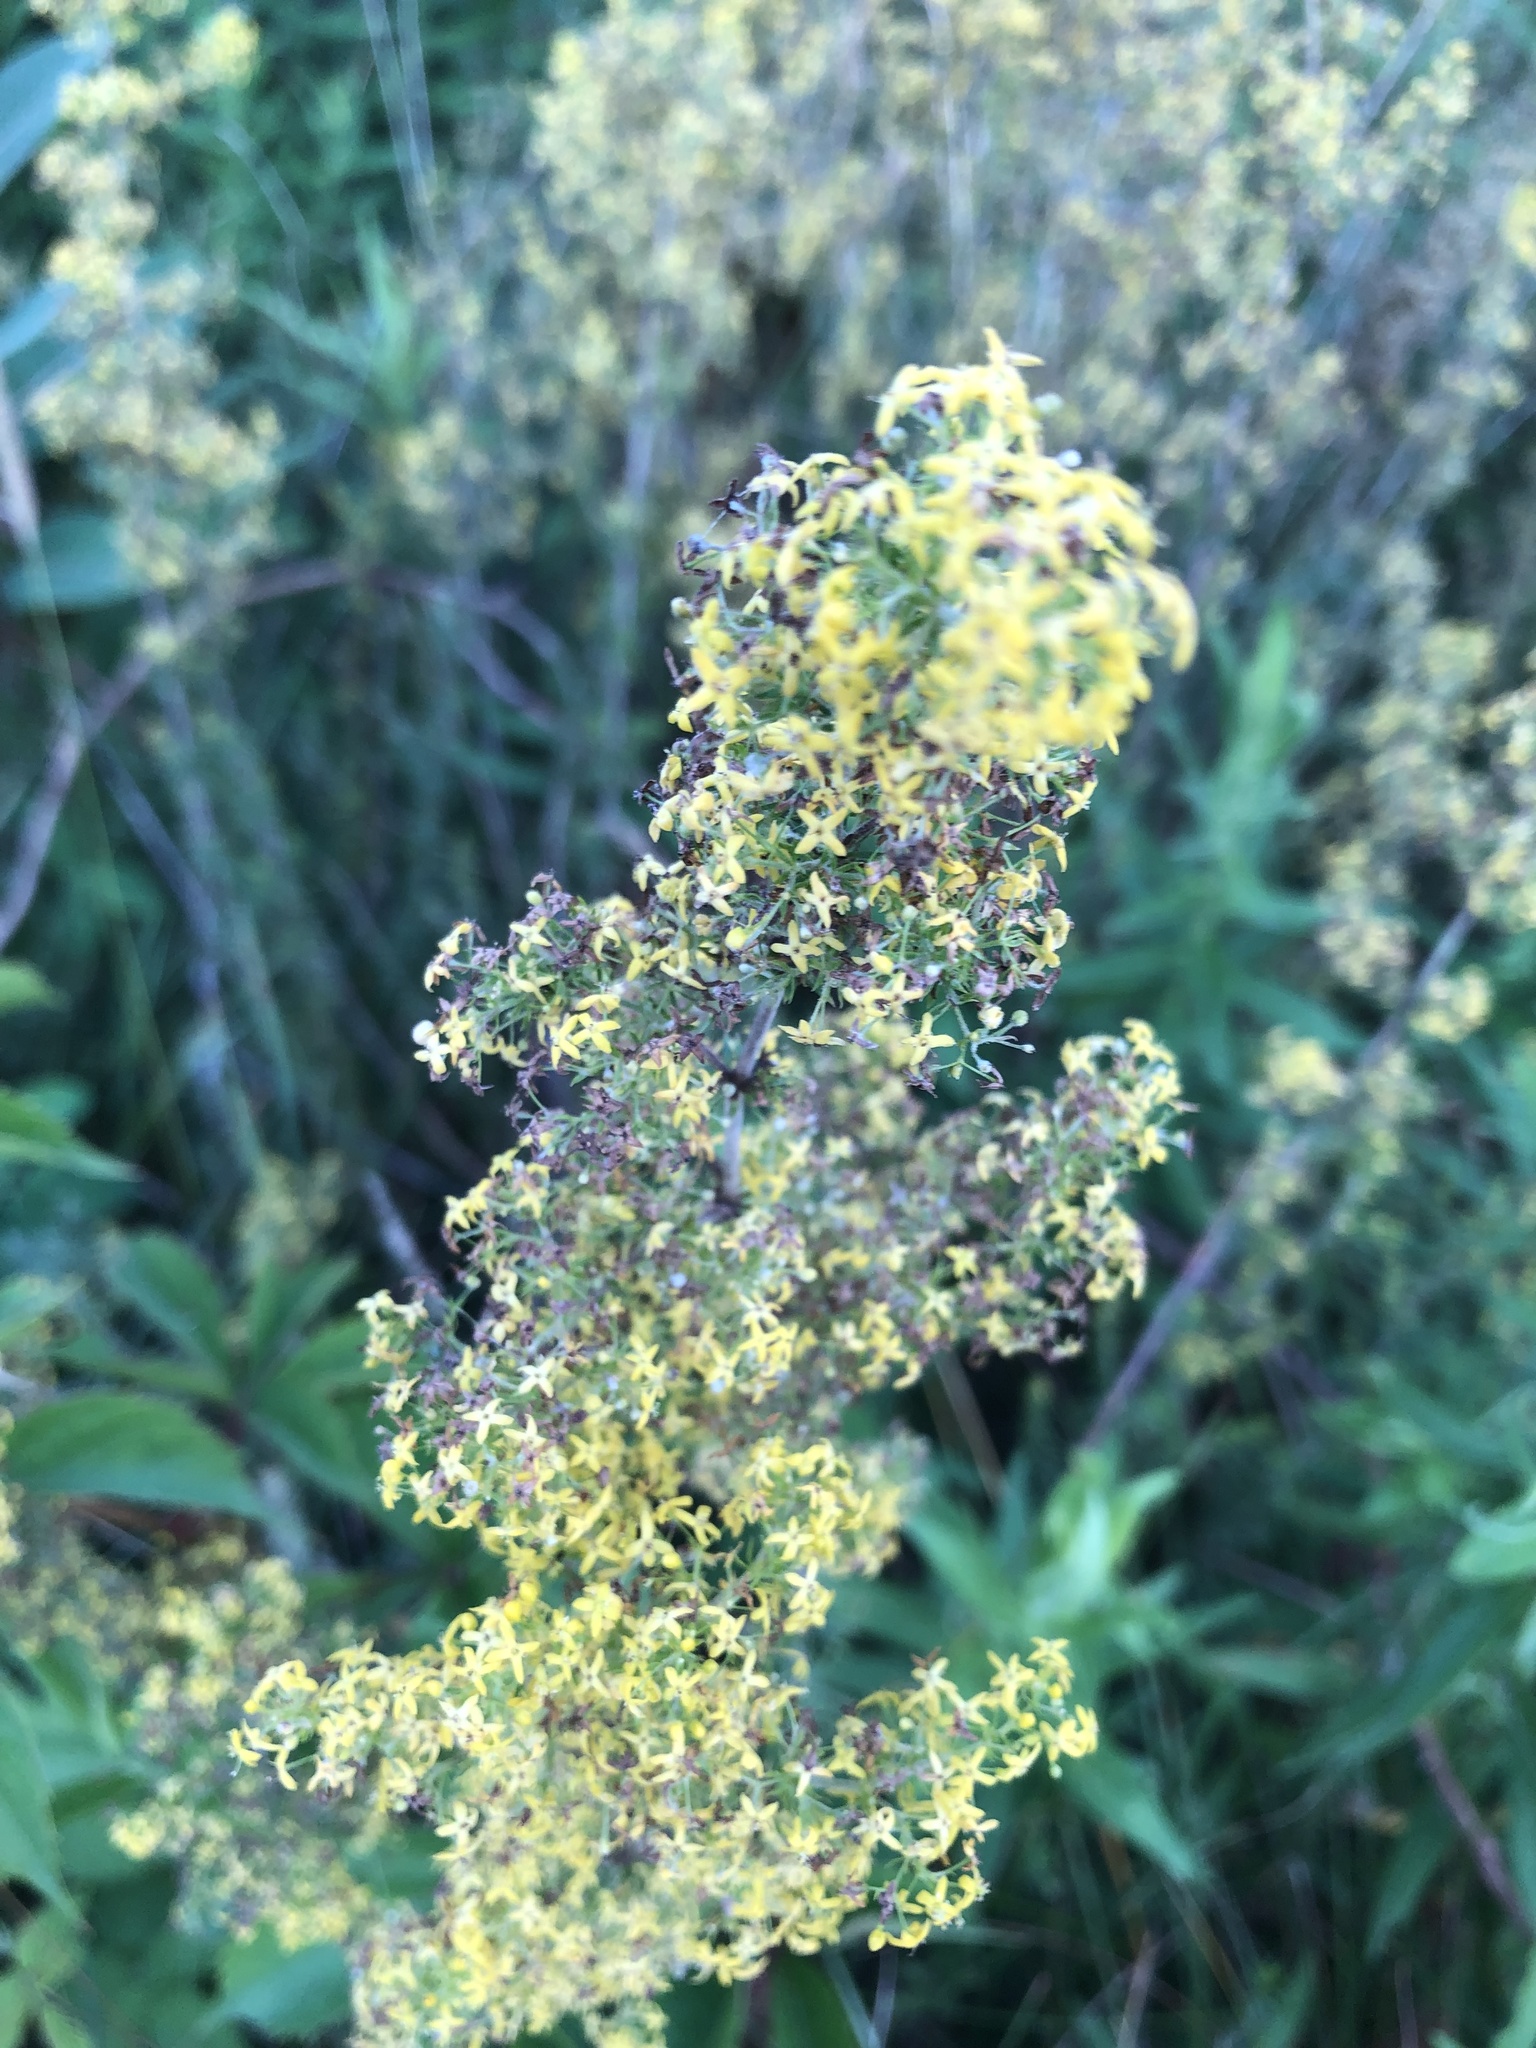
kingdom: Plantae
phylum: Tracheophyta
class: Magnoliopsida
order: Gentianales
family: Rubiaceae
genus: Galium
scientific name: Galium verum
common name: Lady's bedstraw
